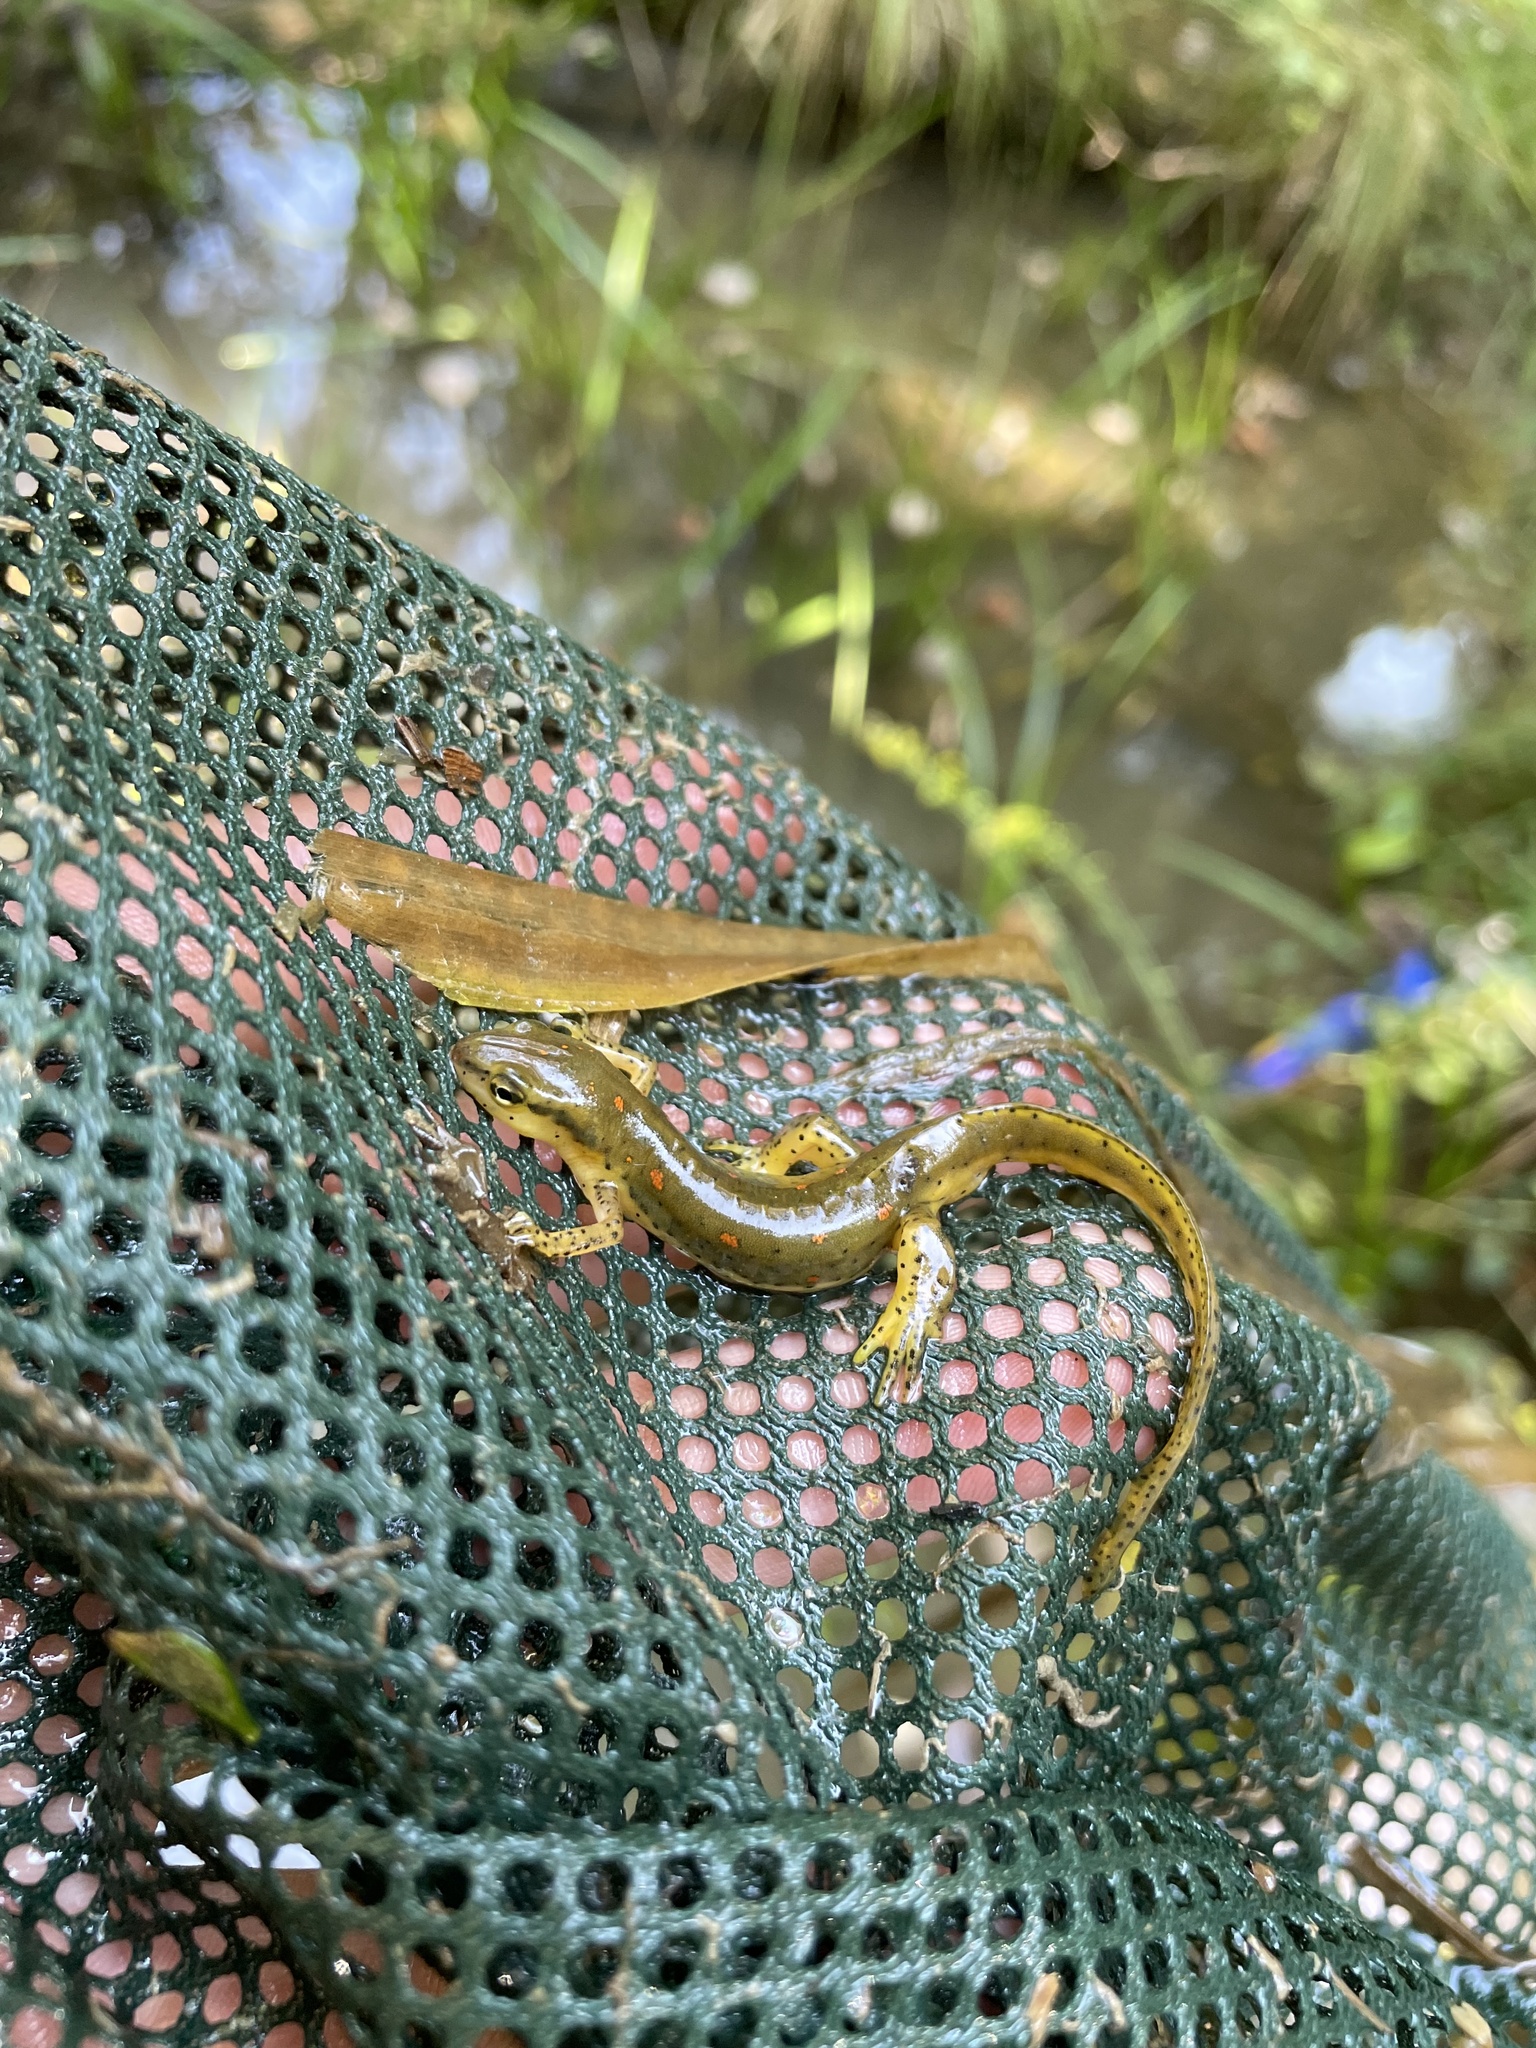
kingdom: Animalia
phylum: Chordata
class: Amphibia
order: Caudata
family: Salamandridae
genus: Notophthalmus
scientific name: Notophthalmus viridescens
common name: Eastern newt
